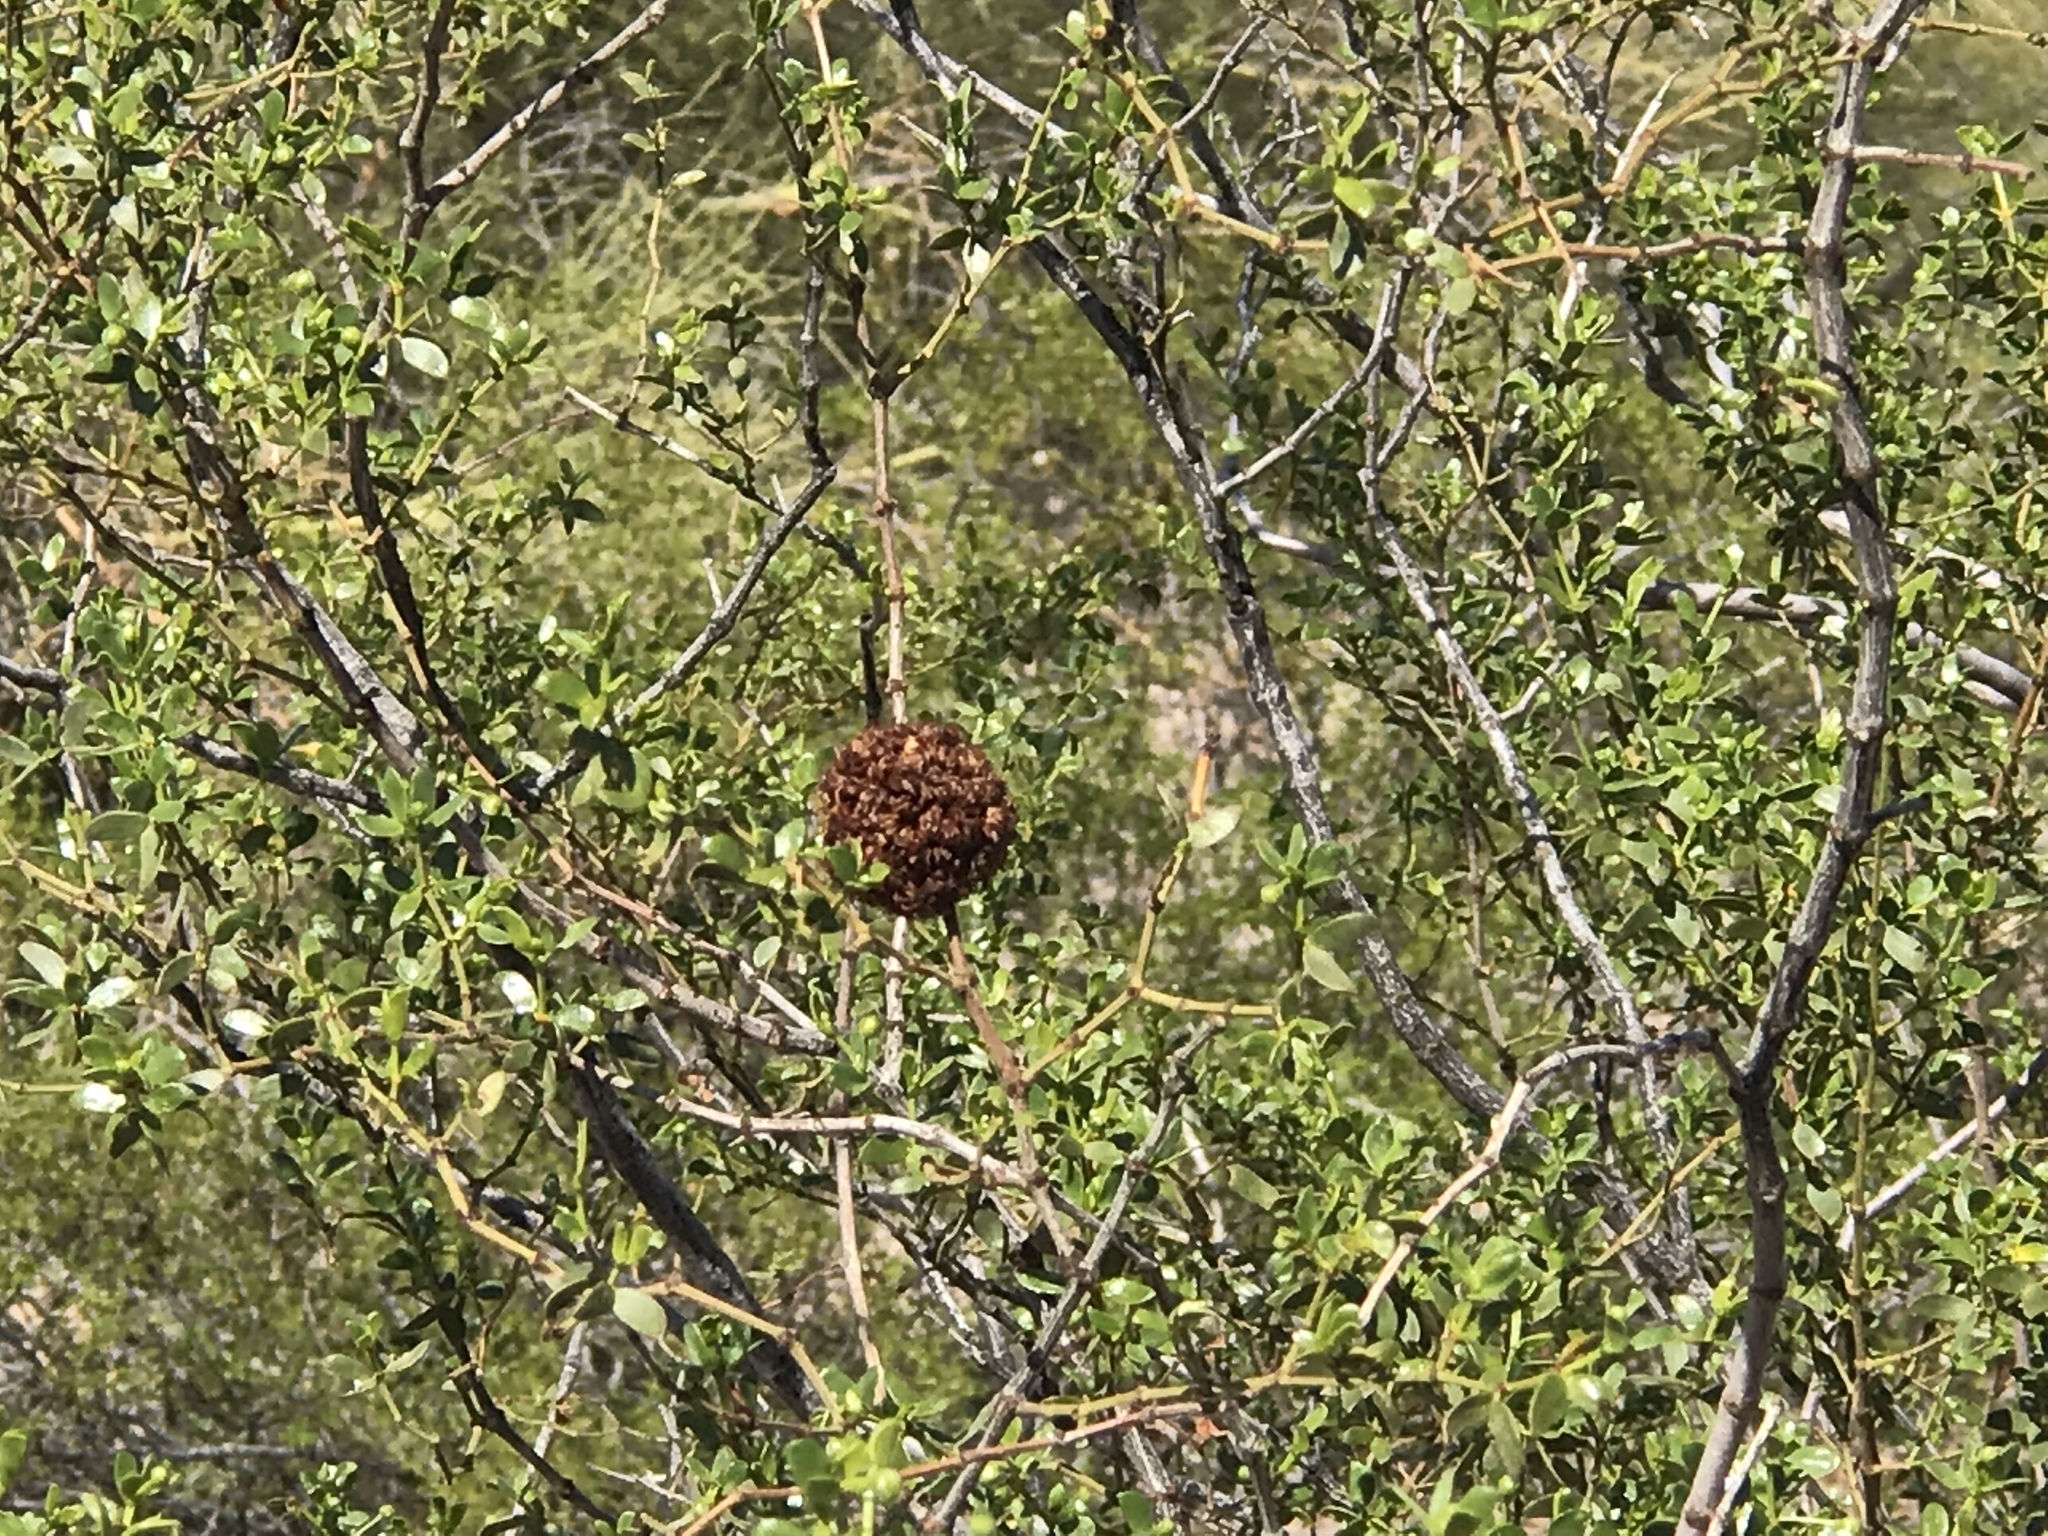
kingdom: Animalia
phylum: Arthropoda
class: Insecta
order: Diptera
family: Cecidomyiidae
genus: Asphondylia
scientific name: Asphondylia auripila
